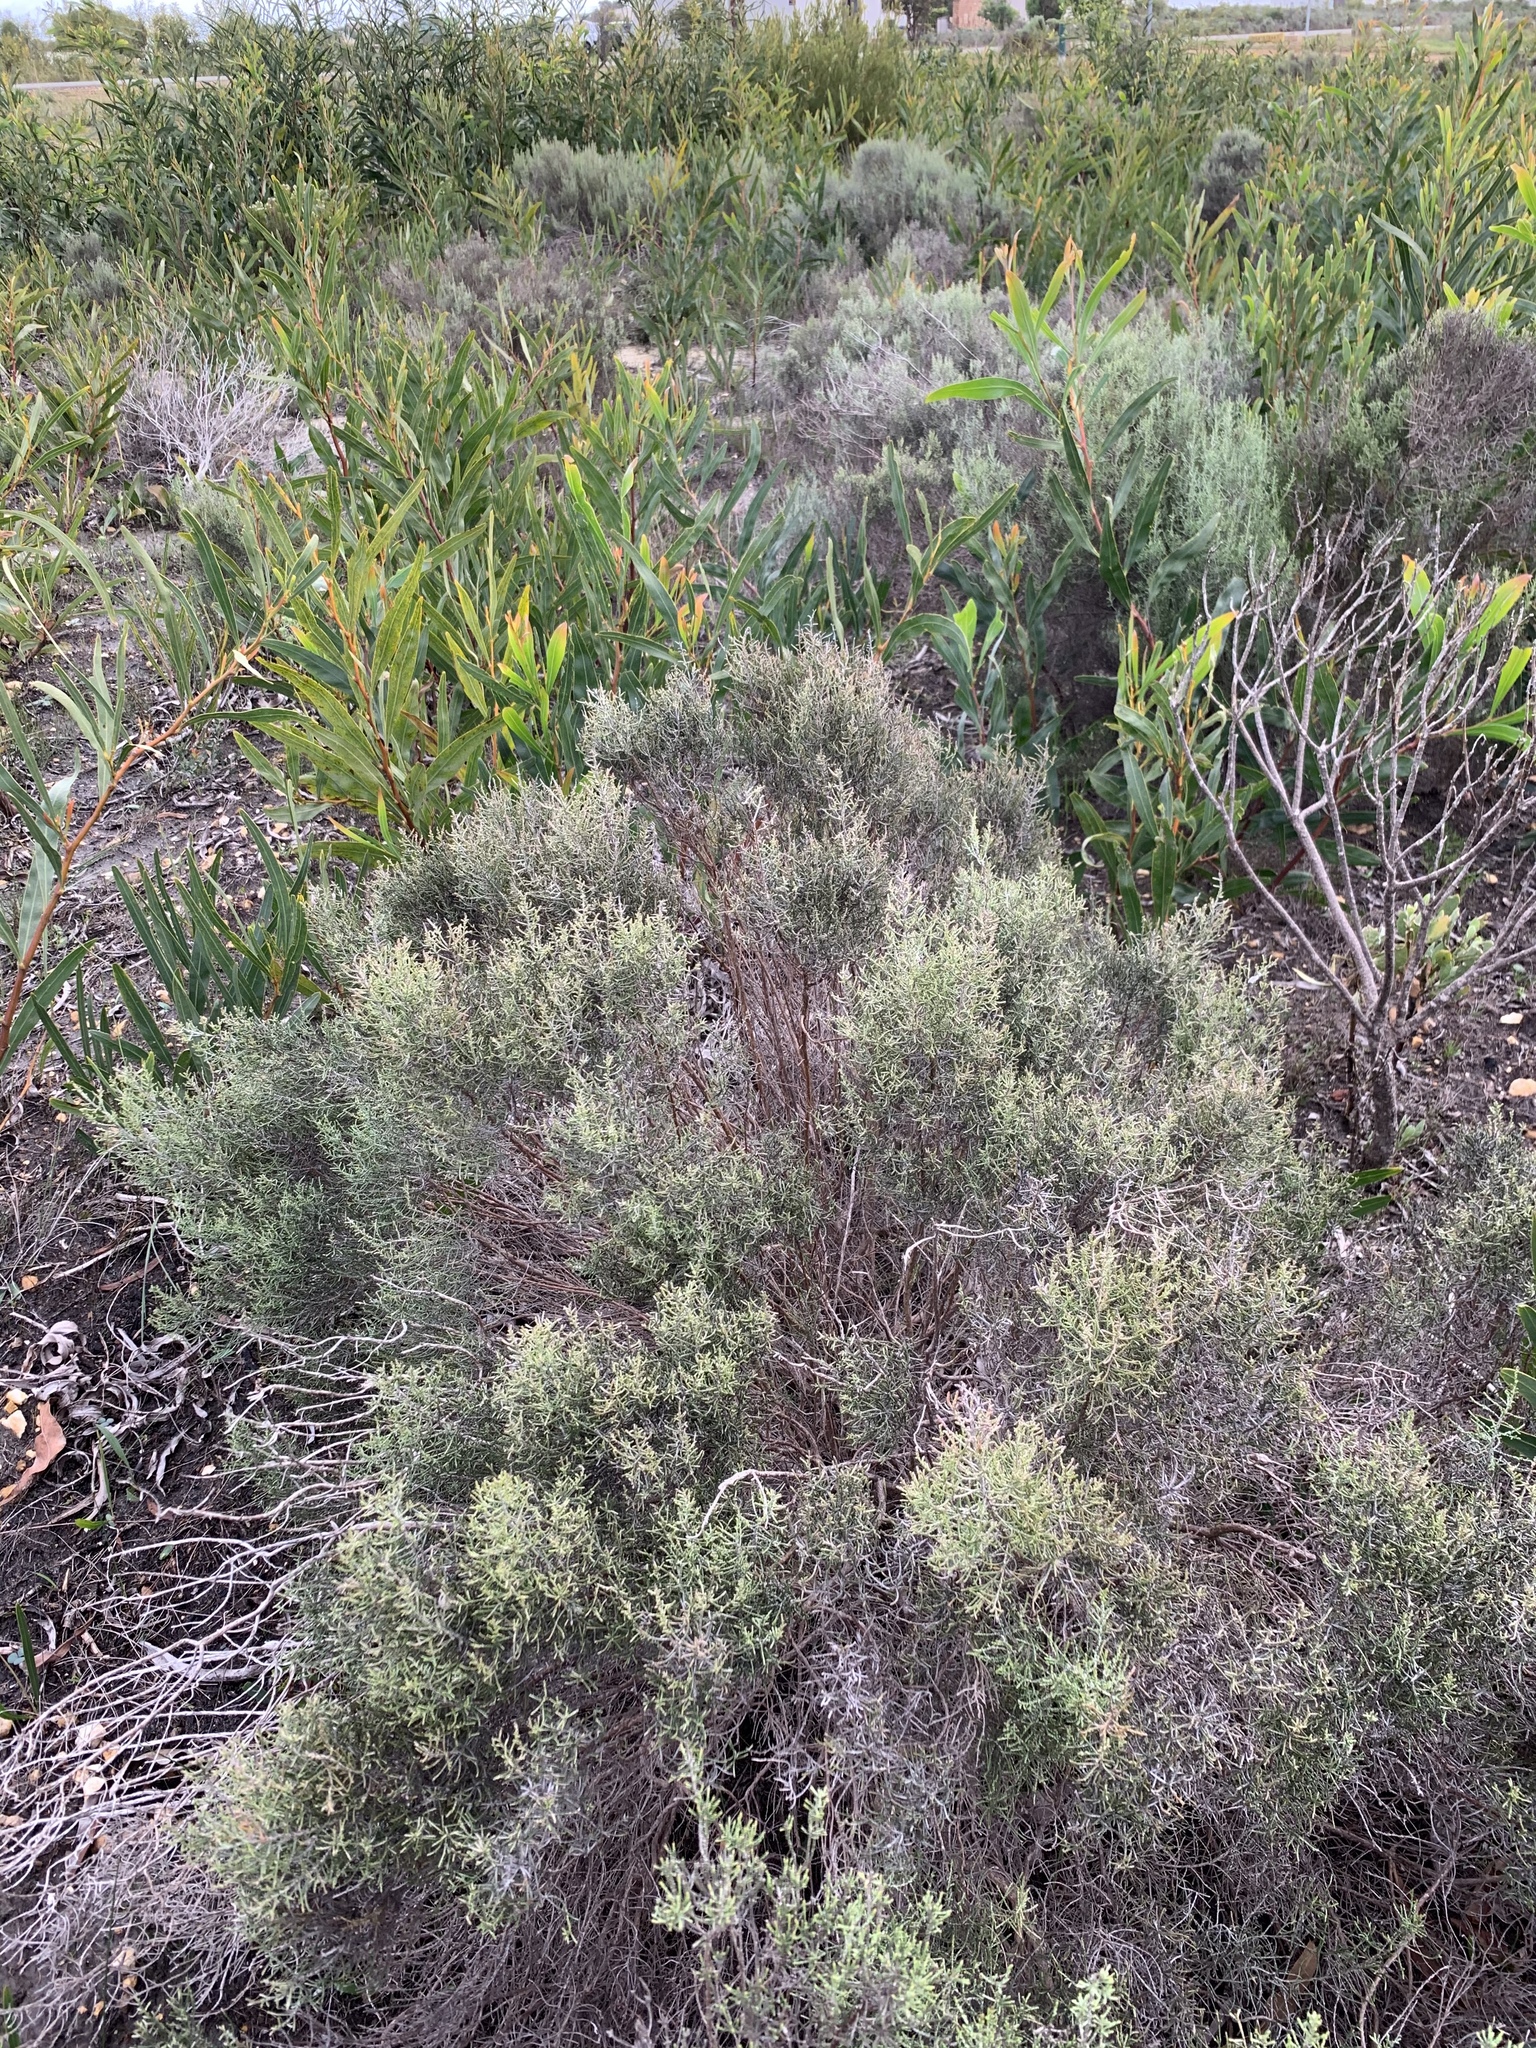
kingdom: Plantae
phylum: Tracheophyta
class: Magnoliopsida
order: Asterales
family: Asteraceae
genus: Dicerothamnus
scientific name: Dicerothamnus rhinocerotis
